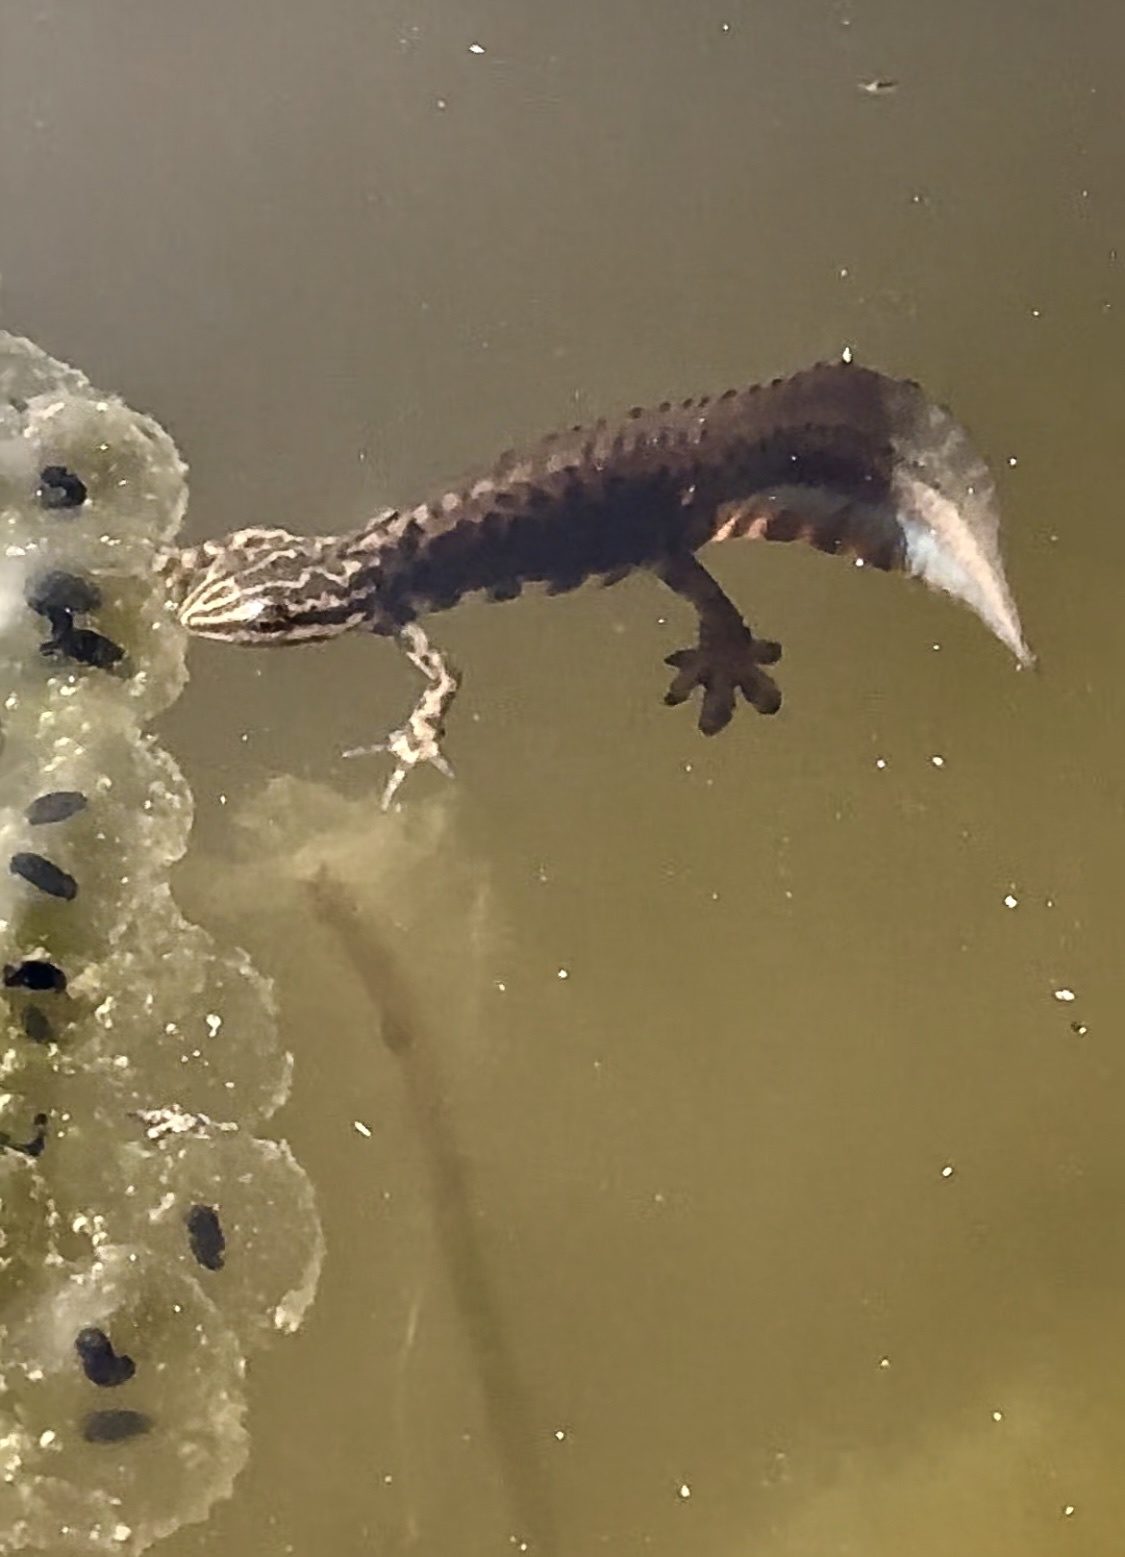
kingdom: Animalia
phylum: Chordata
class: Amphibia
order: Caudata
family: Salamandridae
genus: Lissotriton
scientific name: Lissotriton vulgaris
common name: Smooth newt
